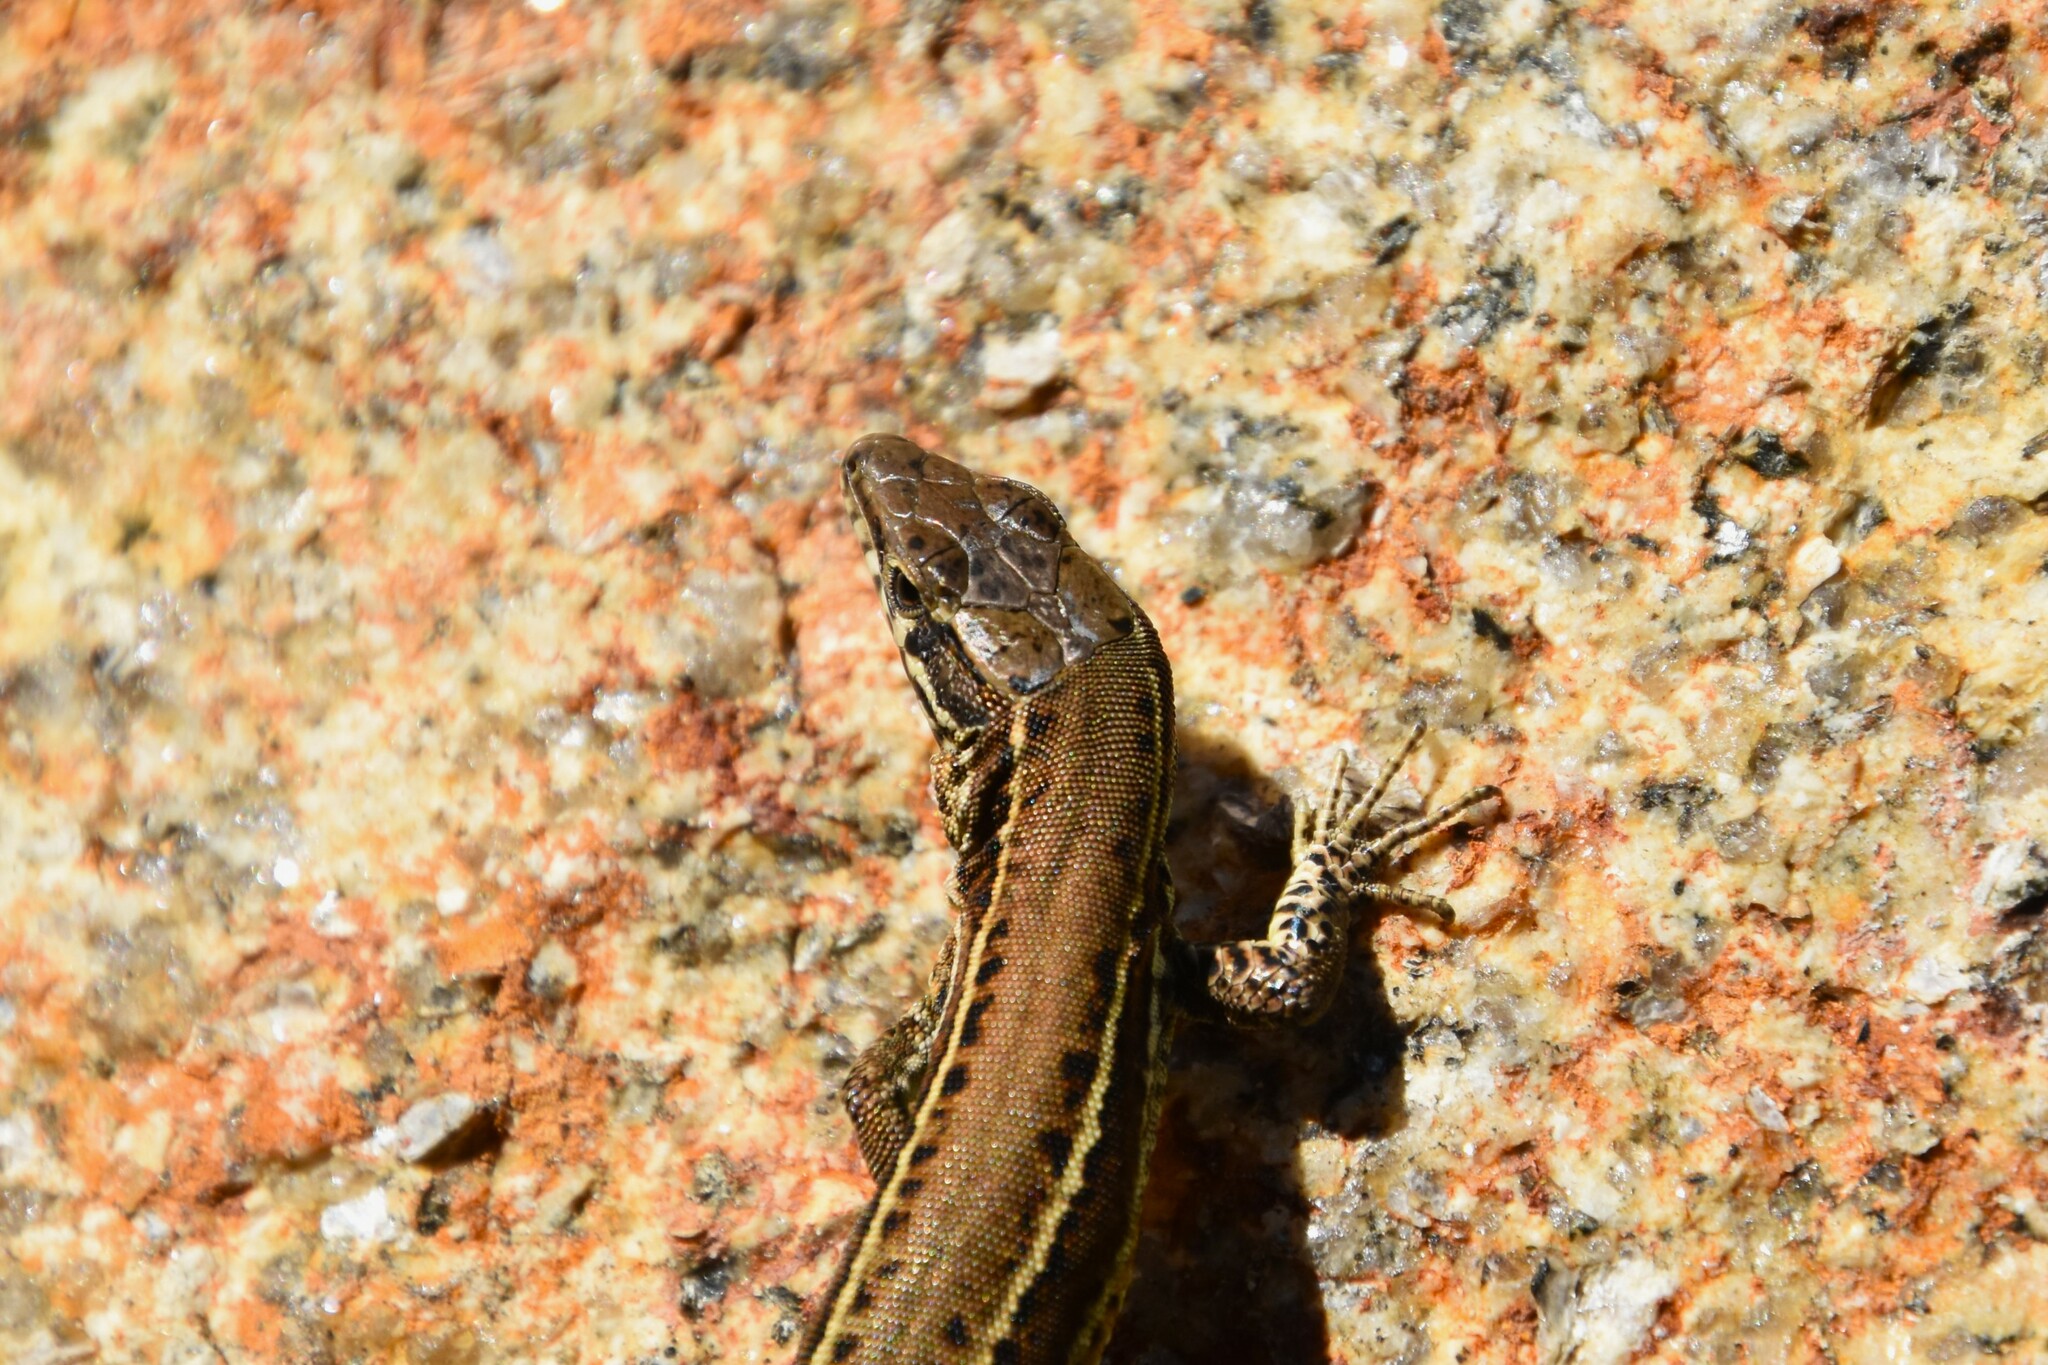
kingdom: Animalia
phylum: Chordata
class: Squamata
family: Lacertidae
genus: Podarcis
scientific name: Podarcis bocagei
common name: Bocage's wall lizard
